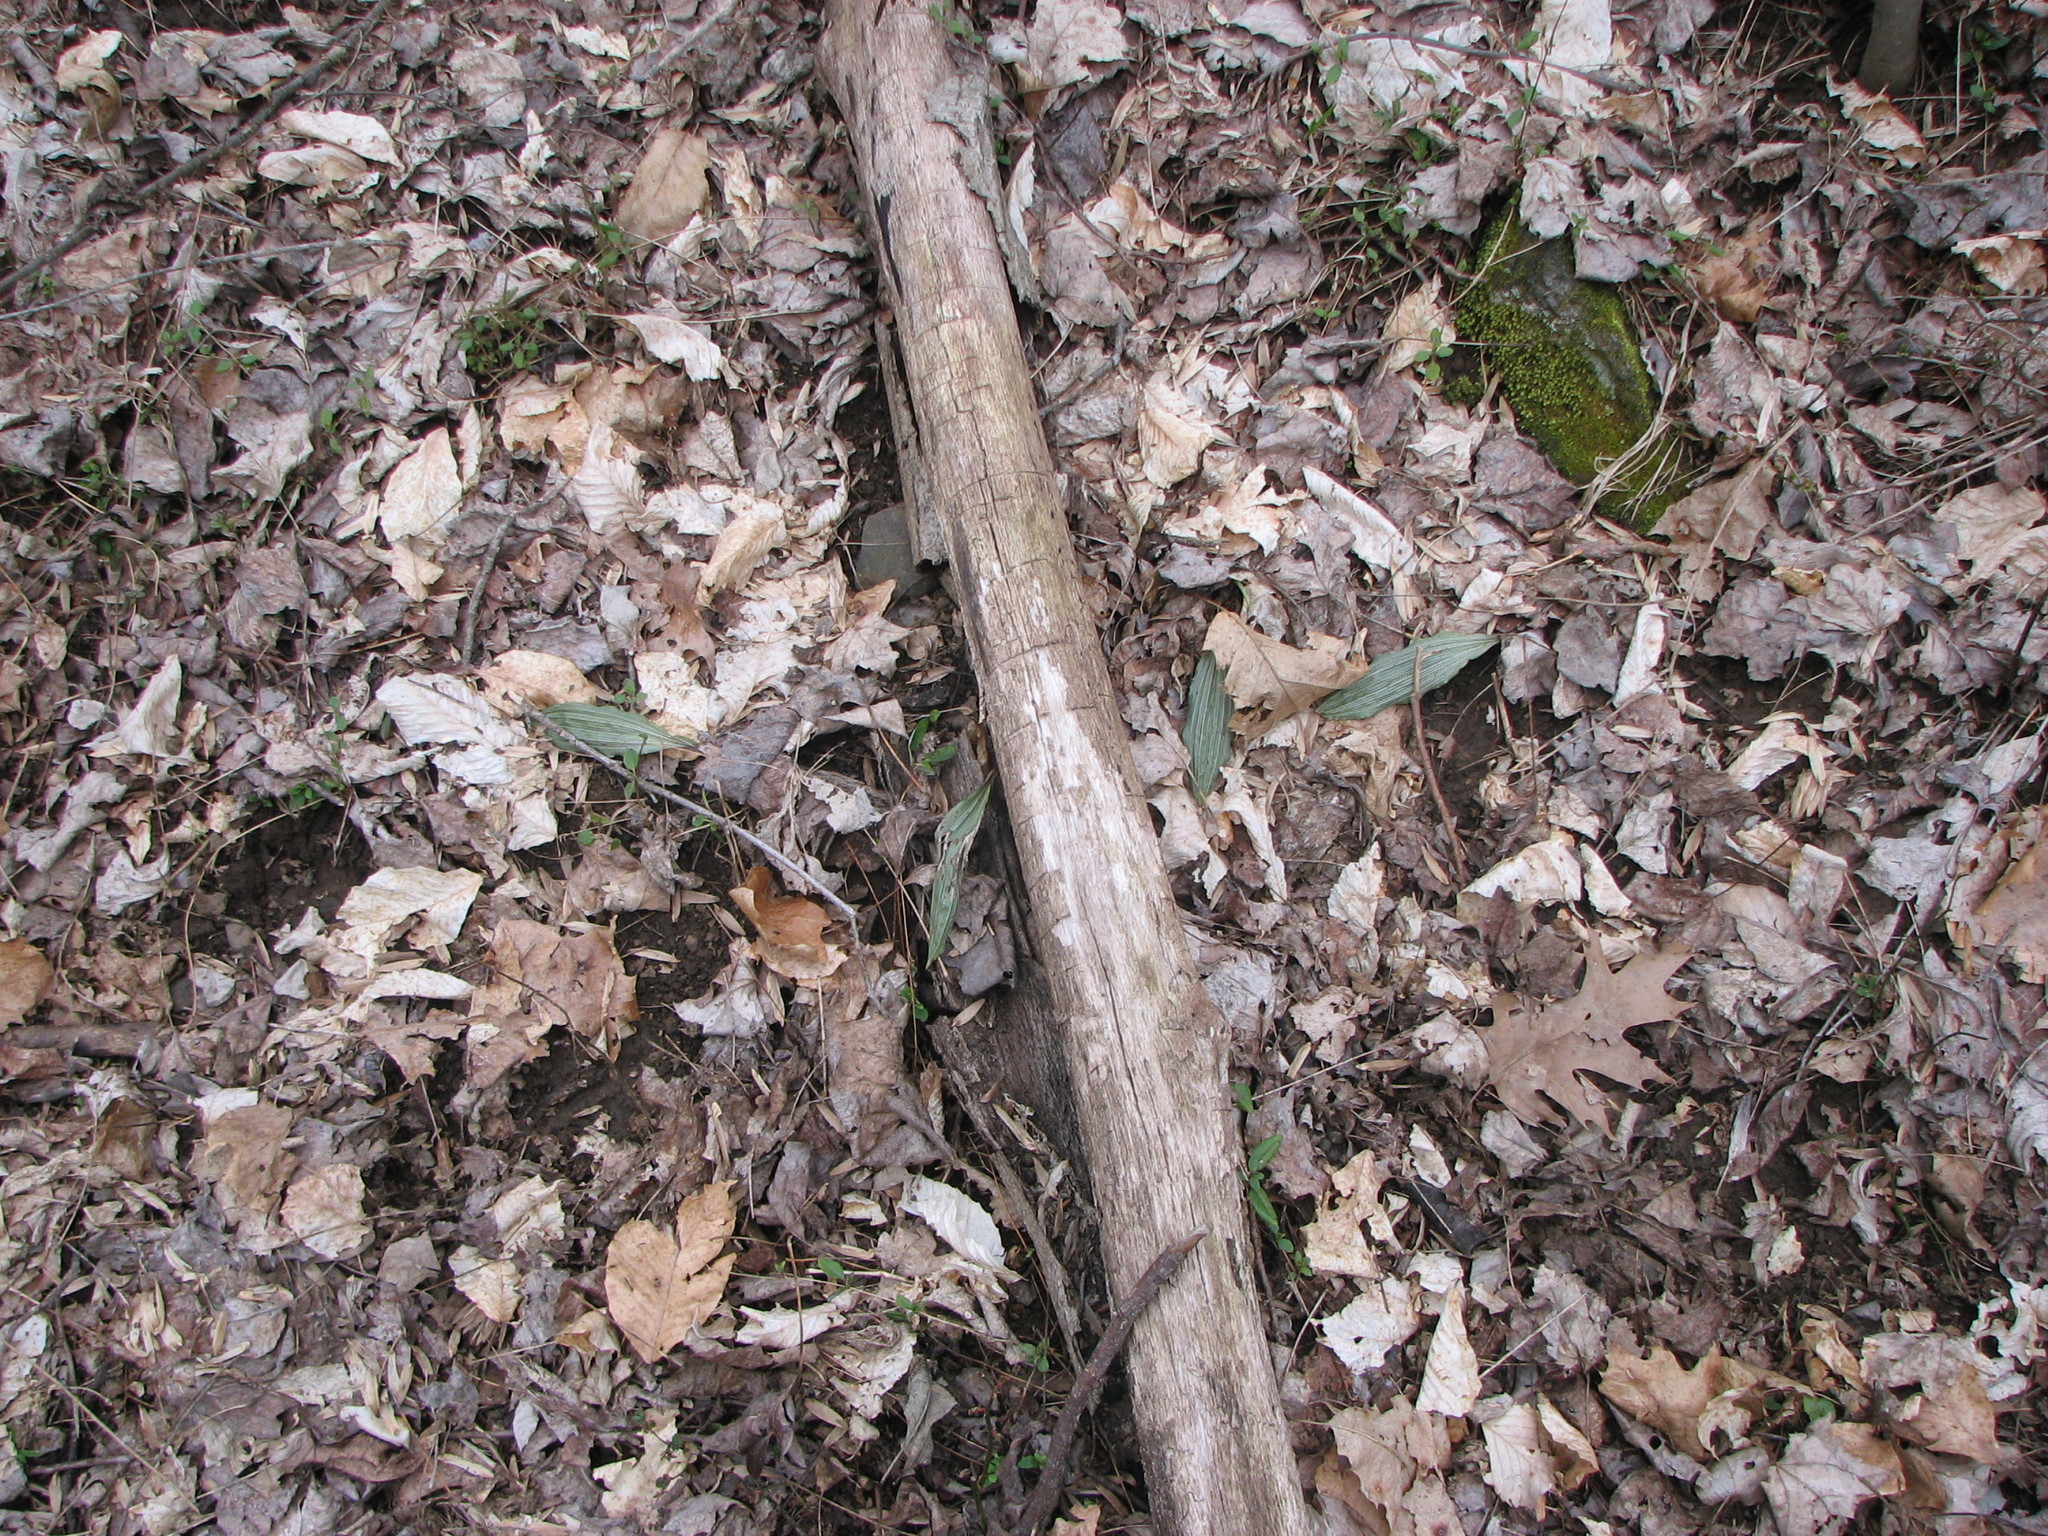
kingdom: Plantae
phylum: Tracheophyta
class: Liliopsida
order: Asparagales
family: Orchidaceae
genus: Aplectrum
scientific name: Aplectrum hyemale
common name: Adam-and-eve
